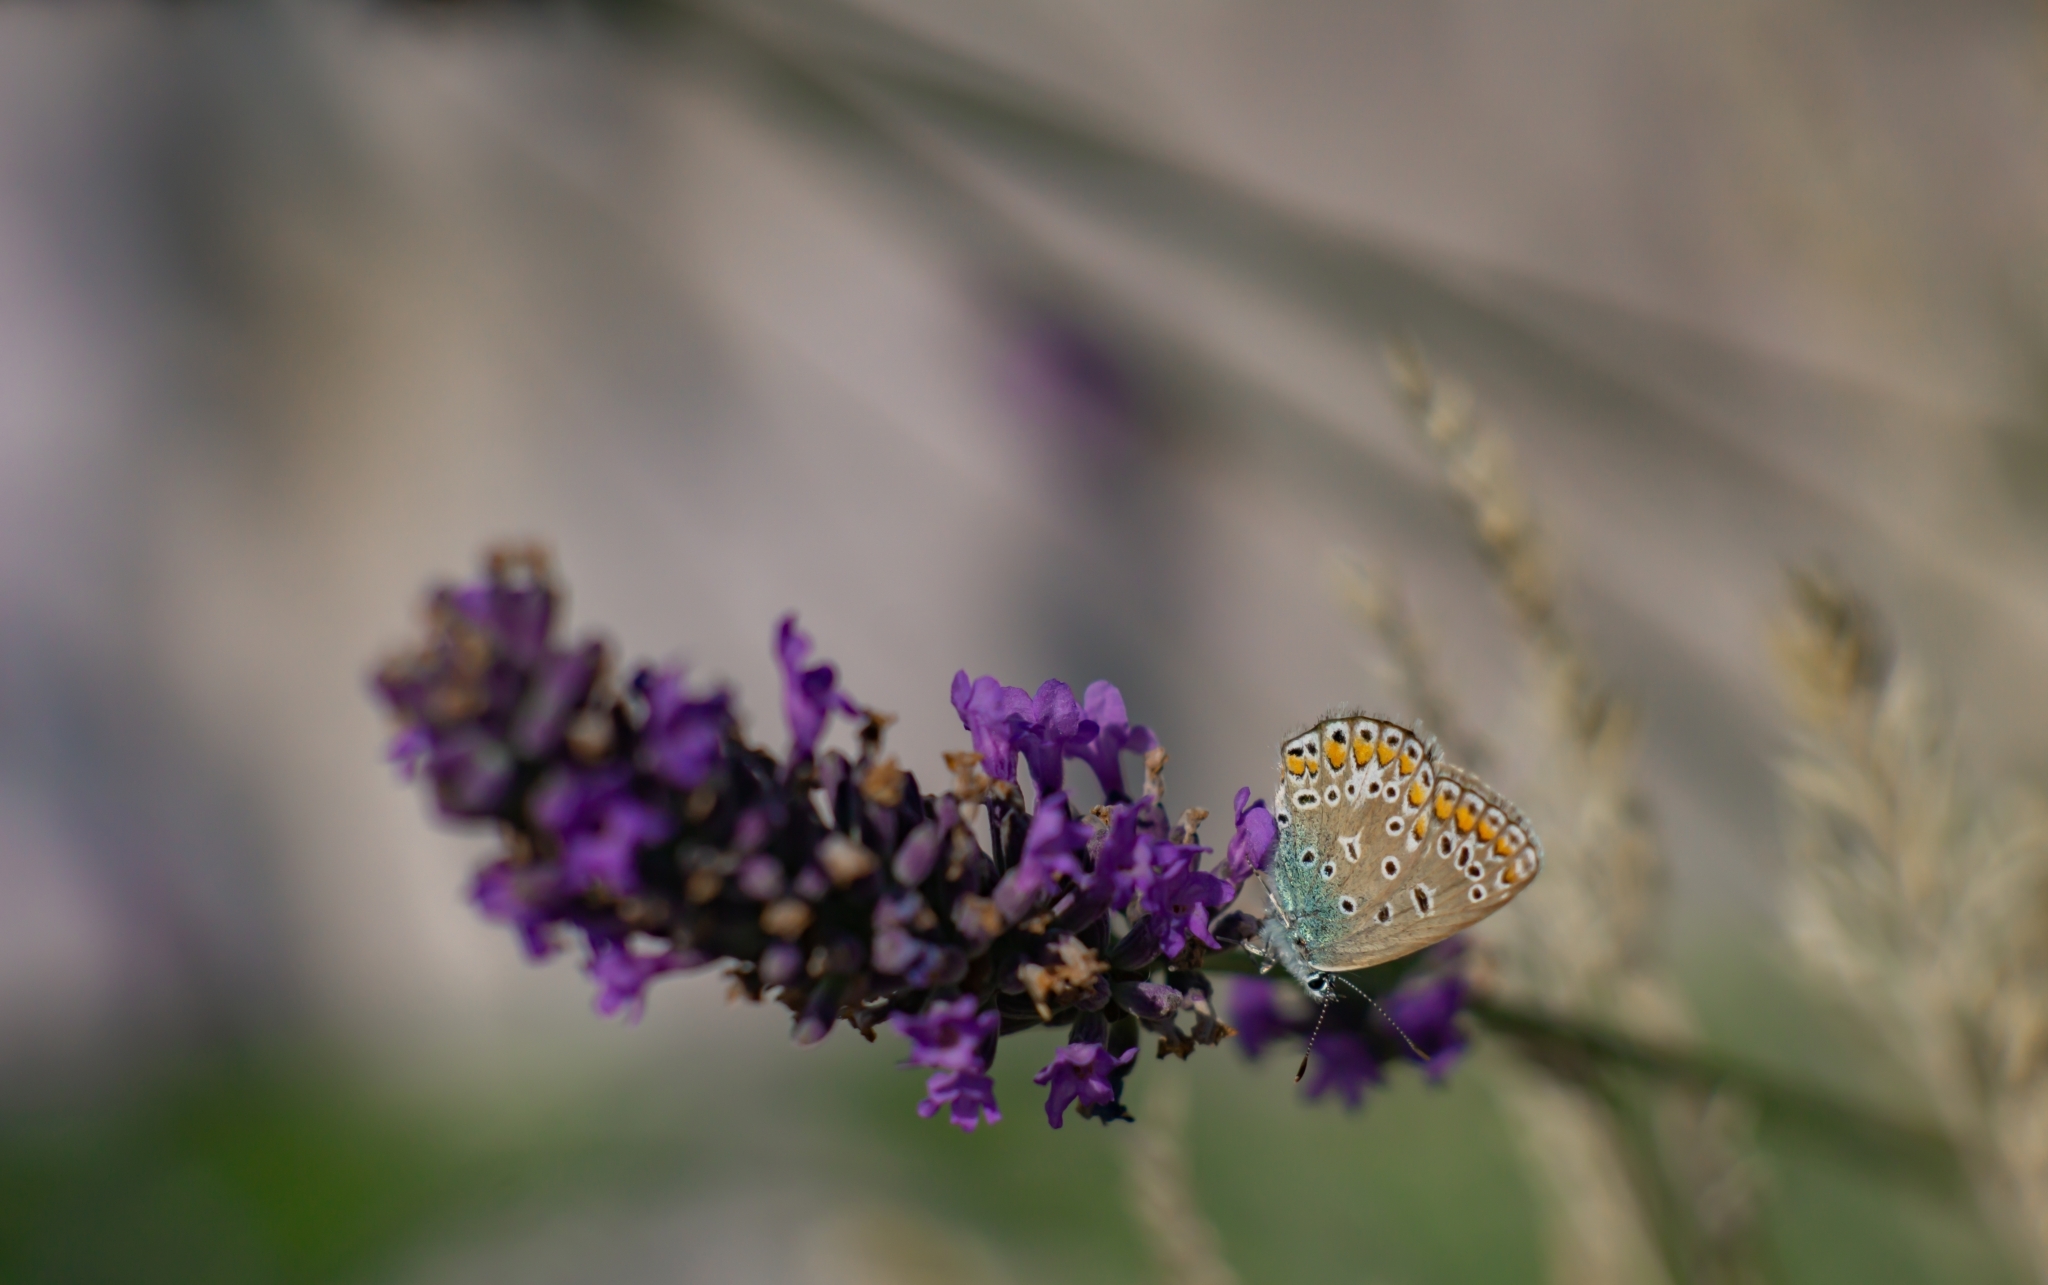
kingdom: Animalia
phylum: Arthropoda
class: Insecta
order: Lepidoptera
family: Lycaenidae
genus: Polyommatus
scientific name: Polyommatus icarus
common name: Common blue
